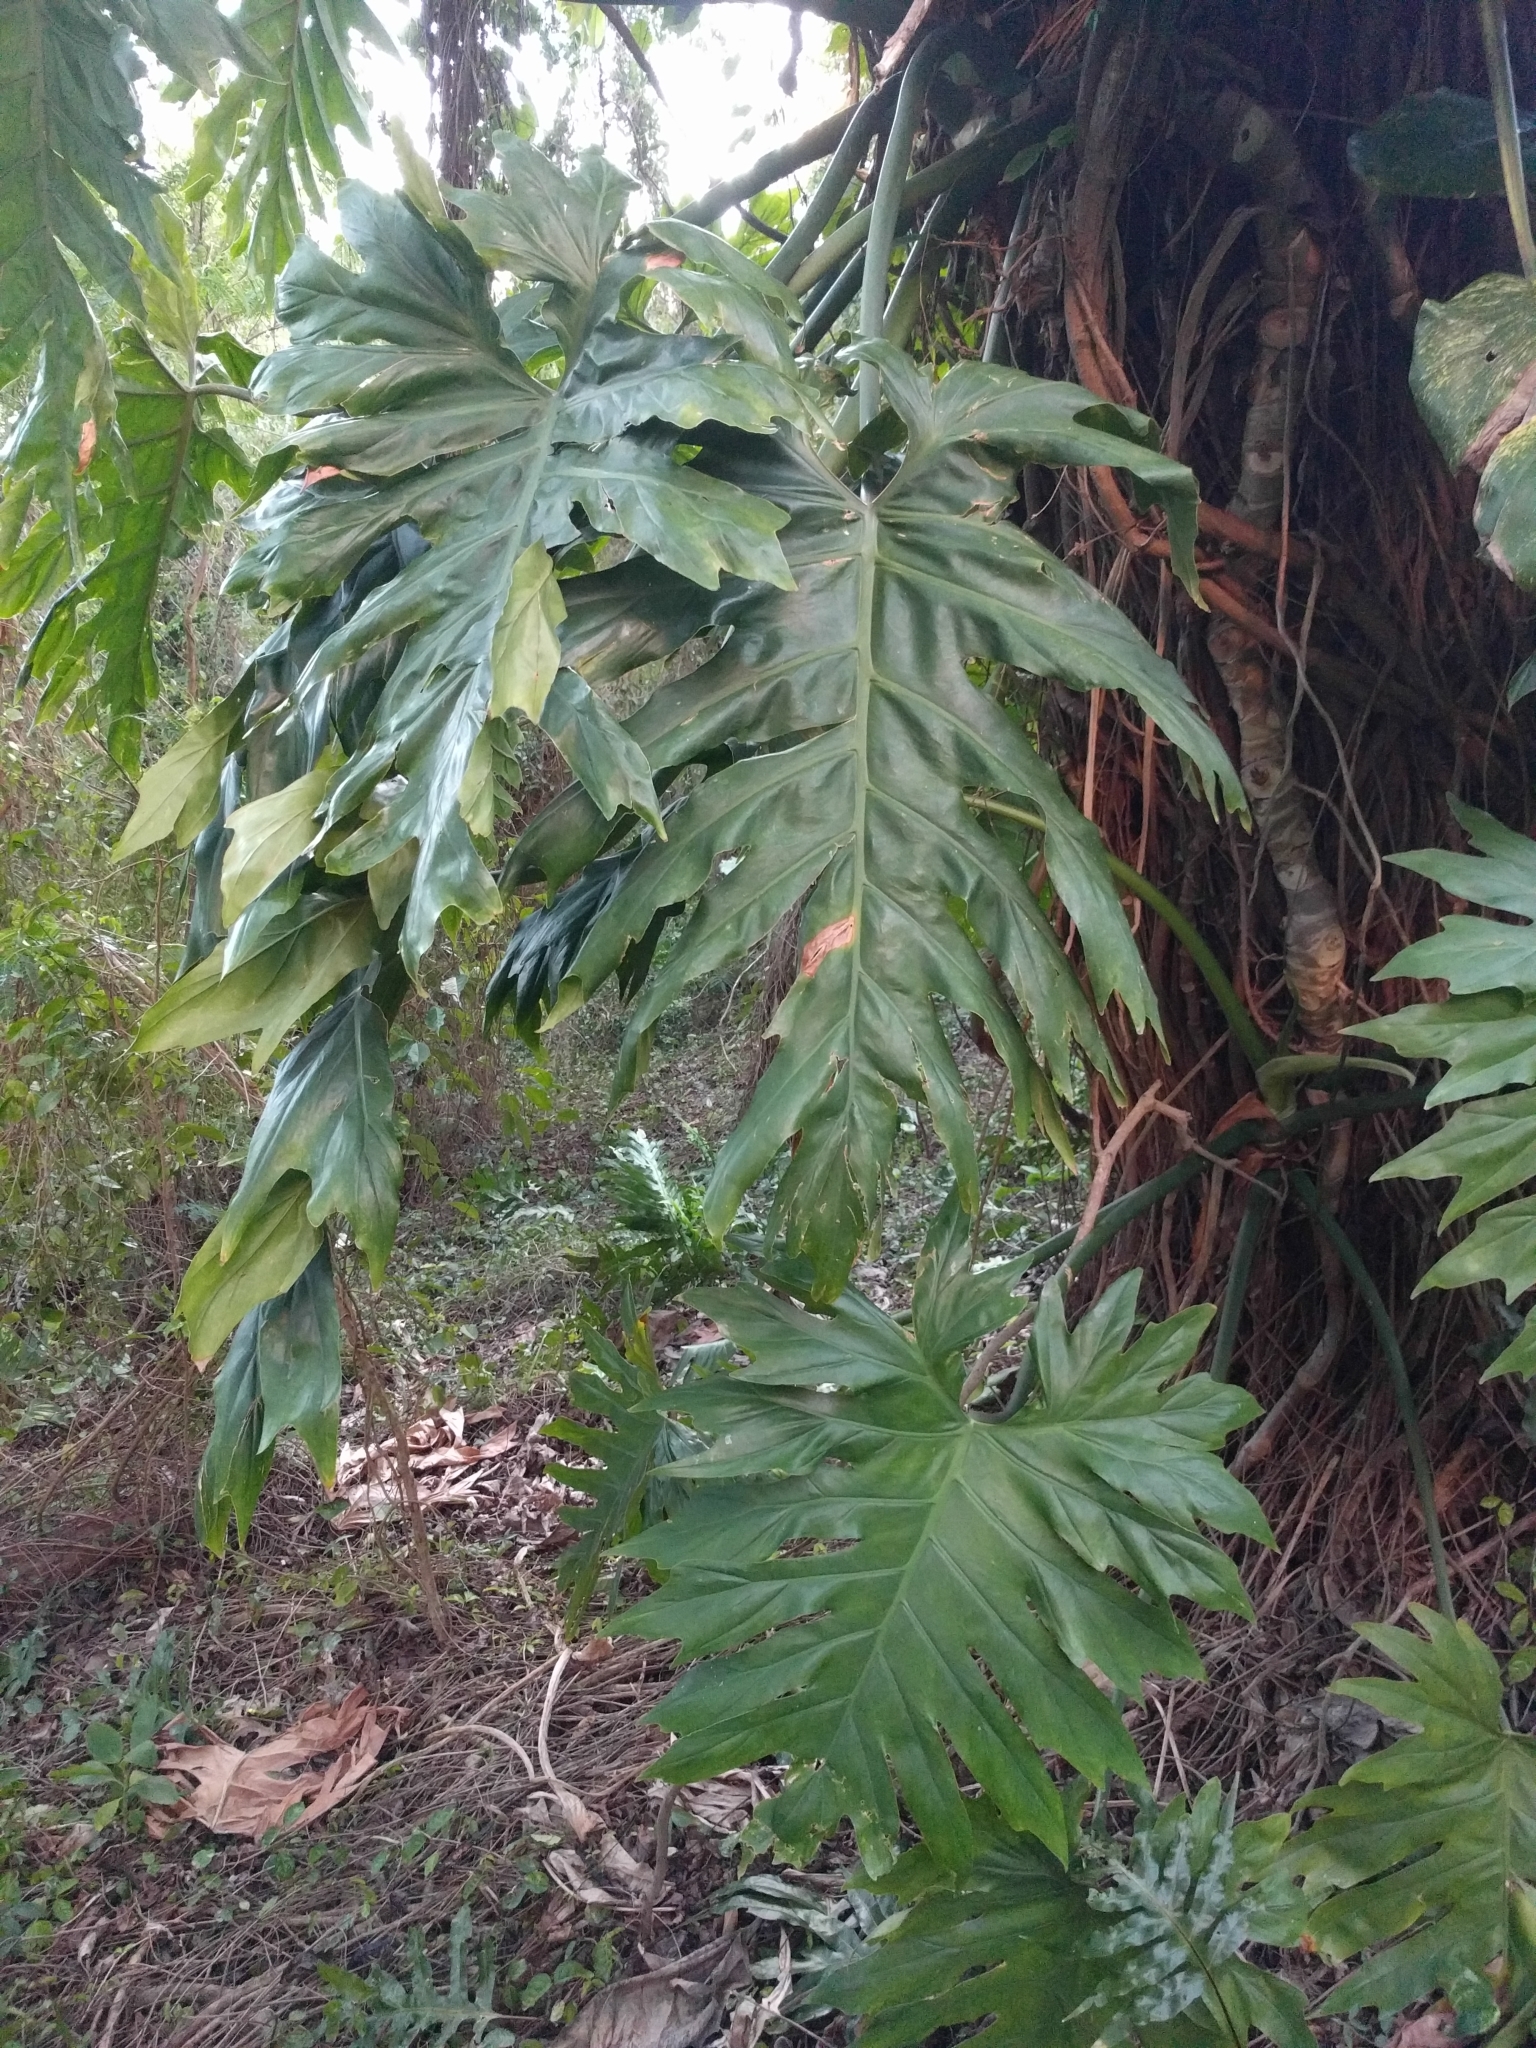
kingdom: Plantae
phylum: Tracheophyta
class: Liliopsida
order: Alismatales
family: Araceae
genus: Philodendron
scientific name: Philodendron radiatum
